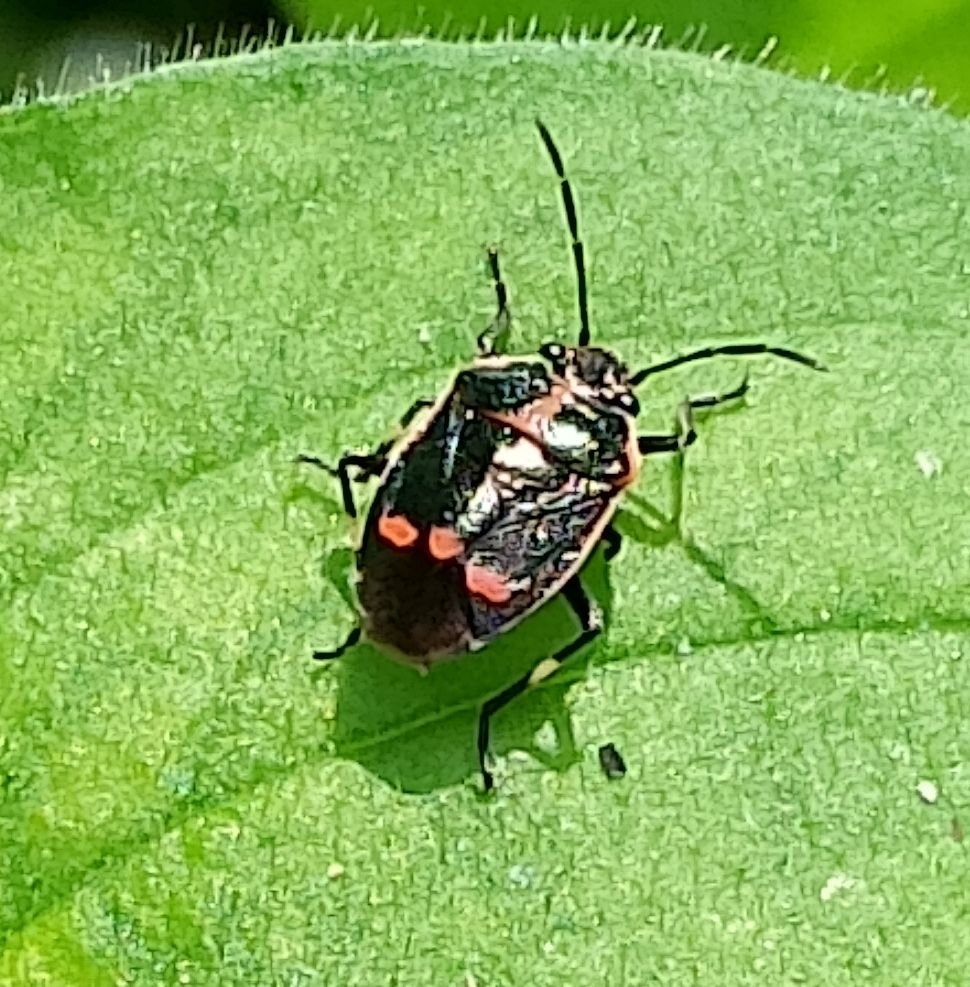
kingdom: Animalia
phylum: Arthropoda
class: Insecta
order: Hemiptera
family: Pentatomidae
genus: Eurydema
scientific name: Eurydema oleracea
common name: Cabbage bug
